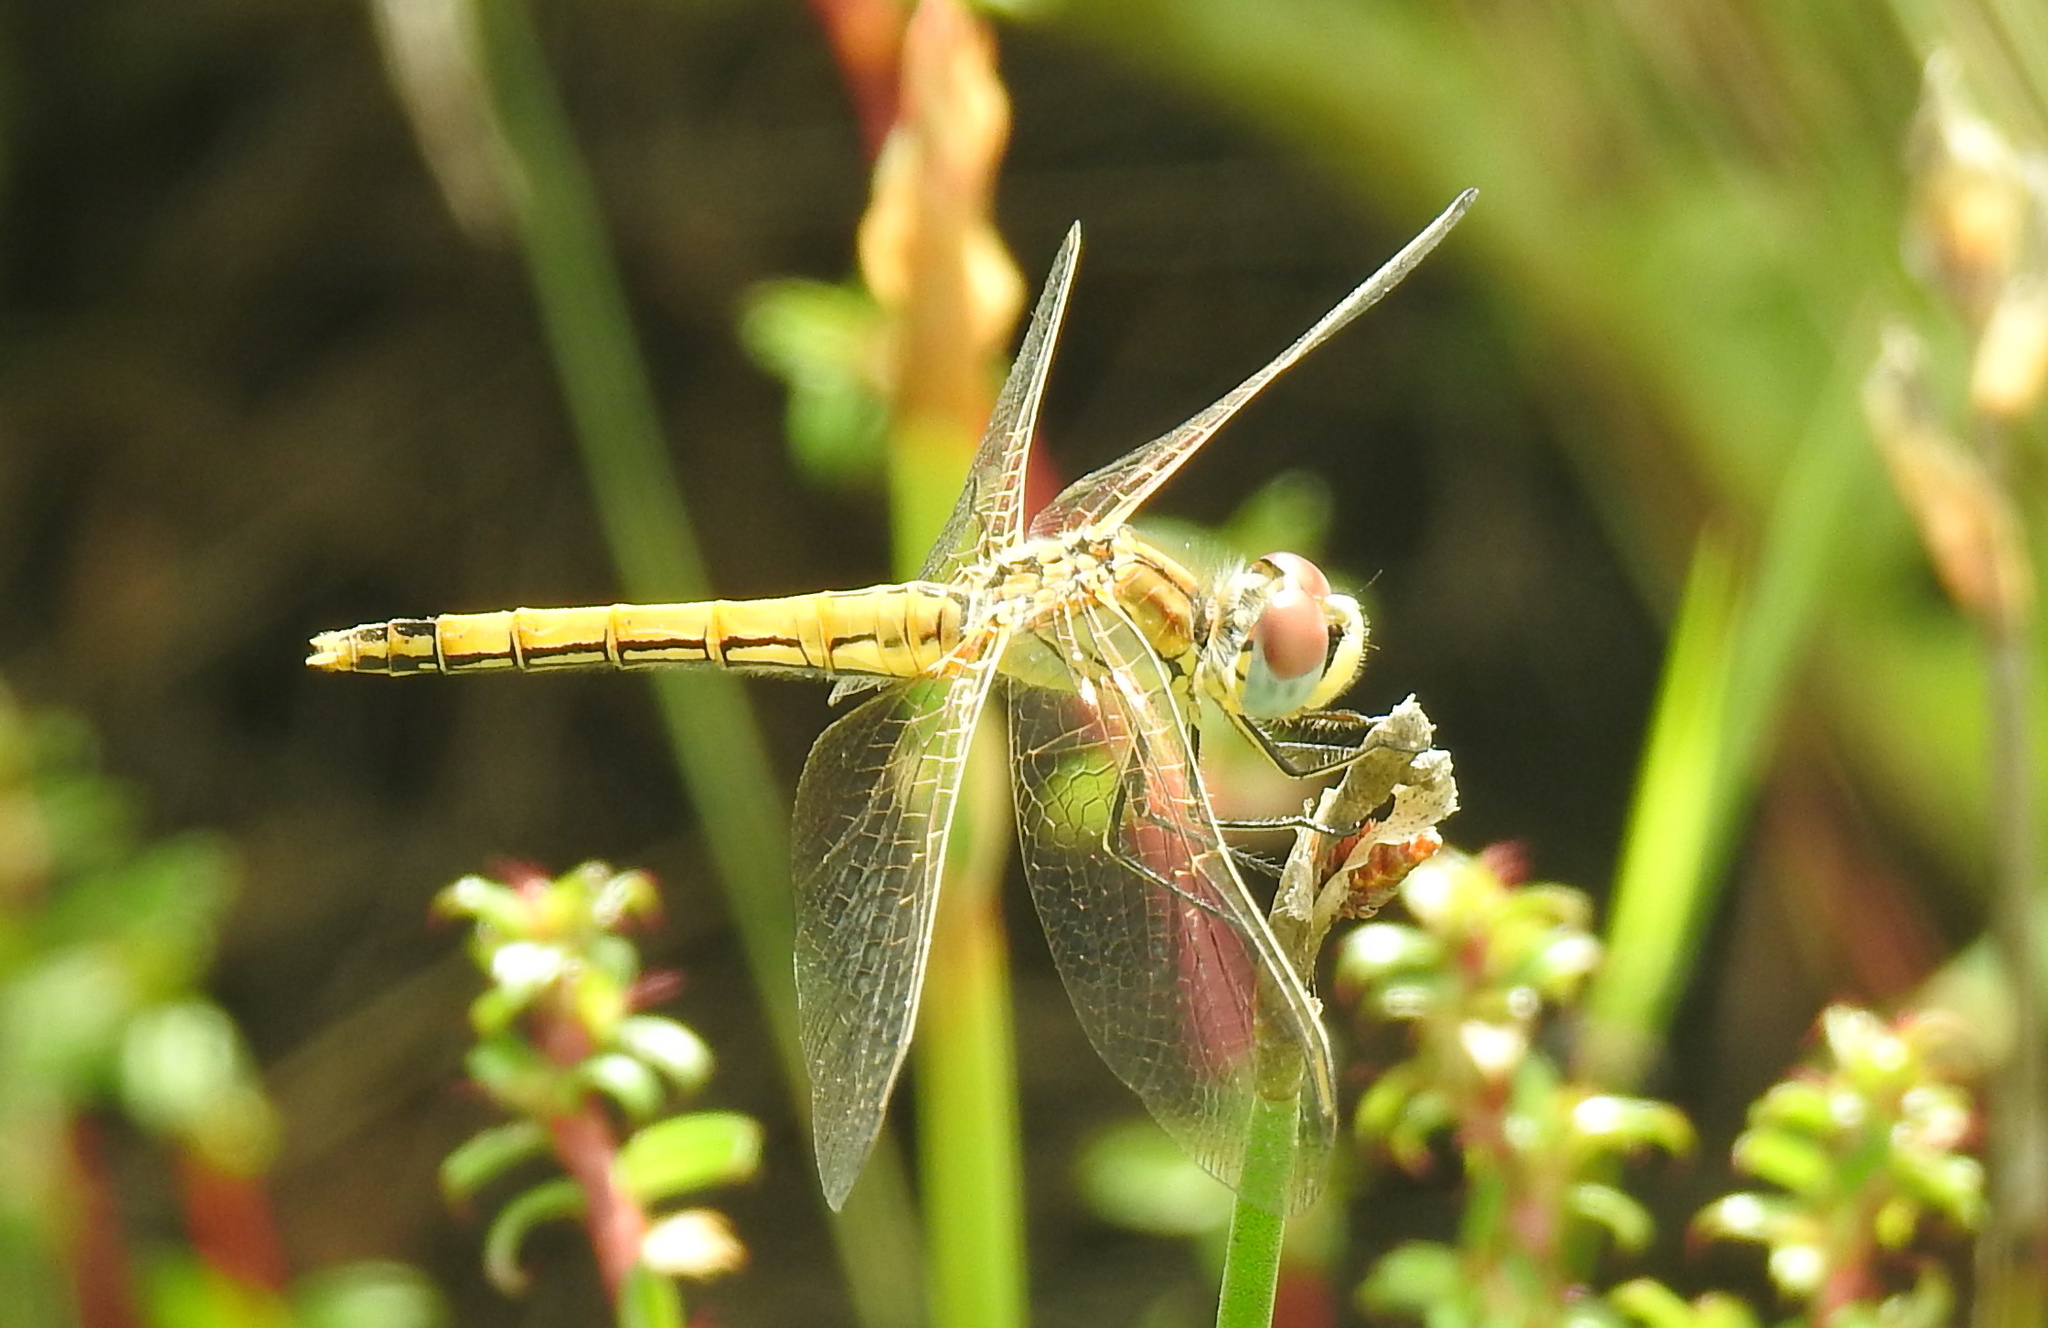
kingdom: Animalia
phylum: Arthropoda
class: Insecta
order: Odonata
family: Libellulidae
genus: Sympetrum
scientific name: Sympetrum fonscolombii
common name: Red-veined darter
